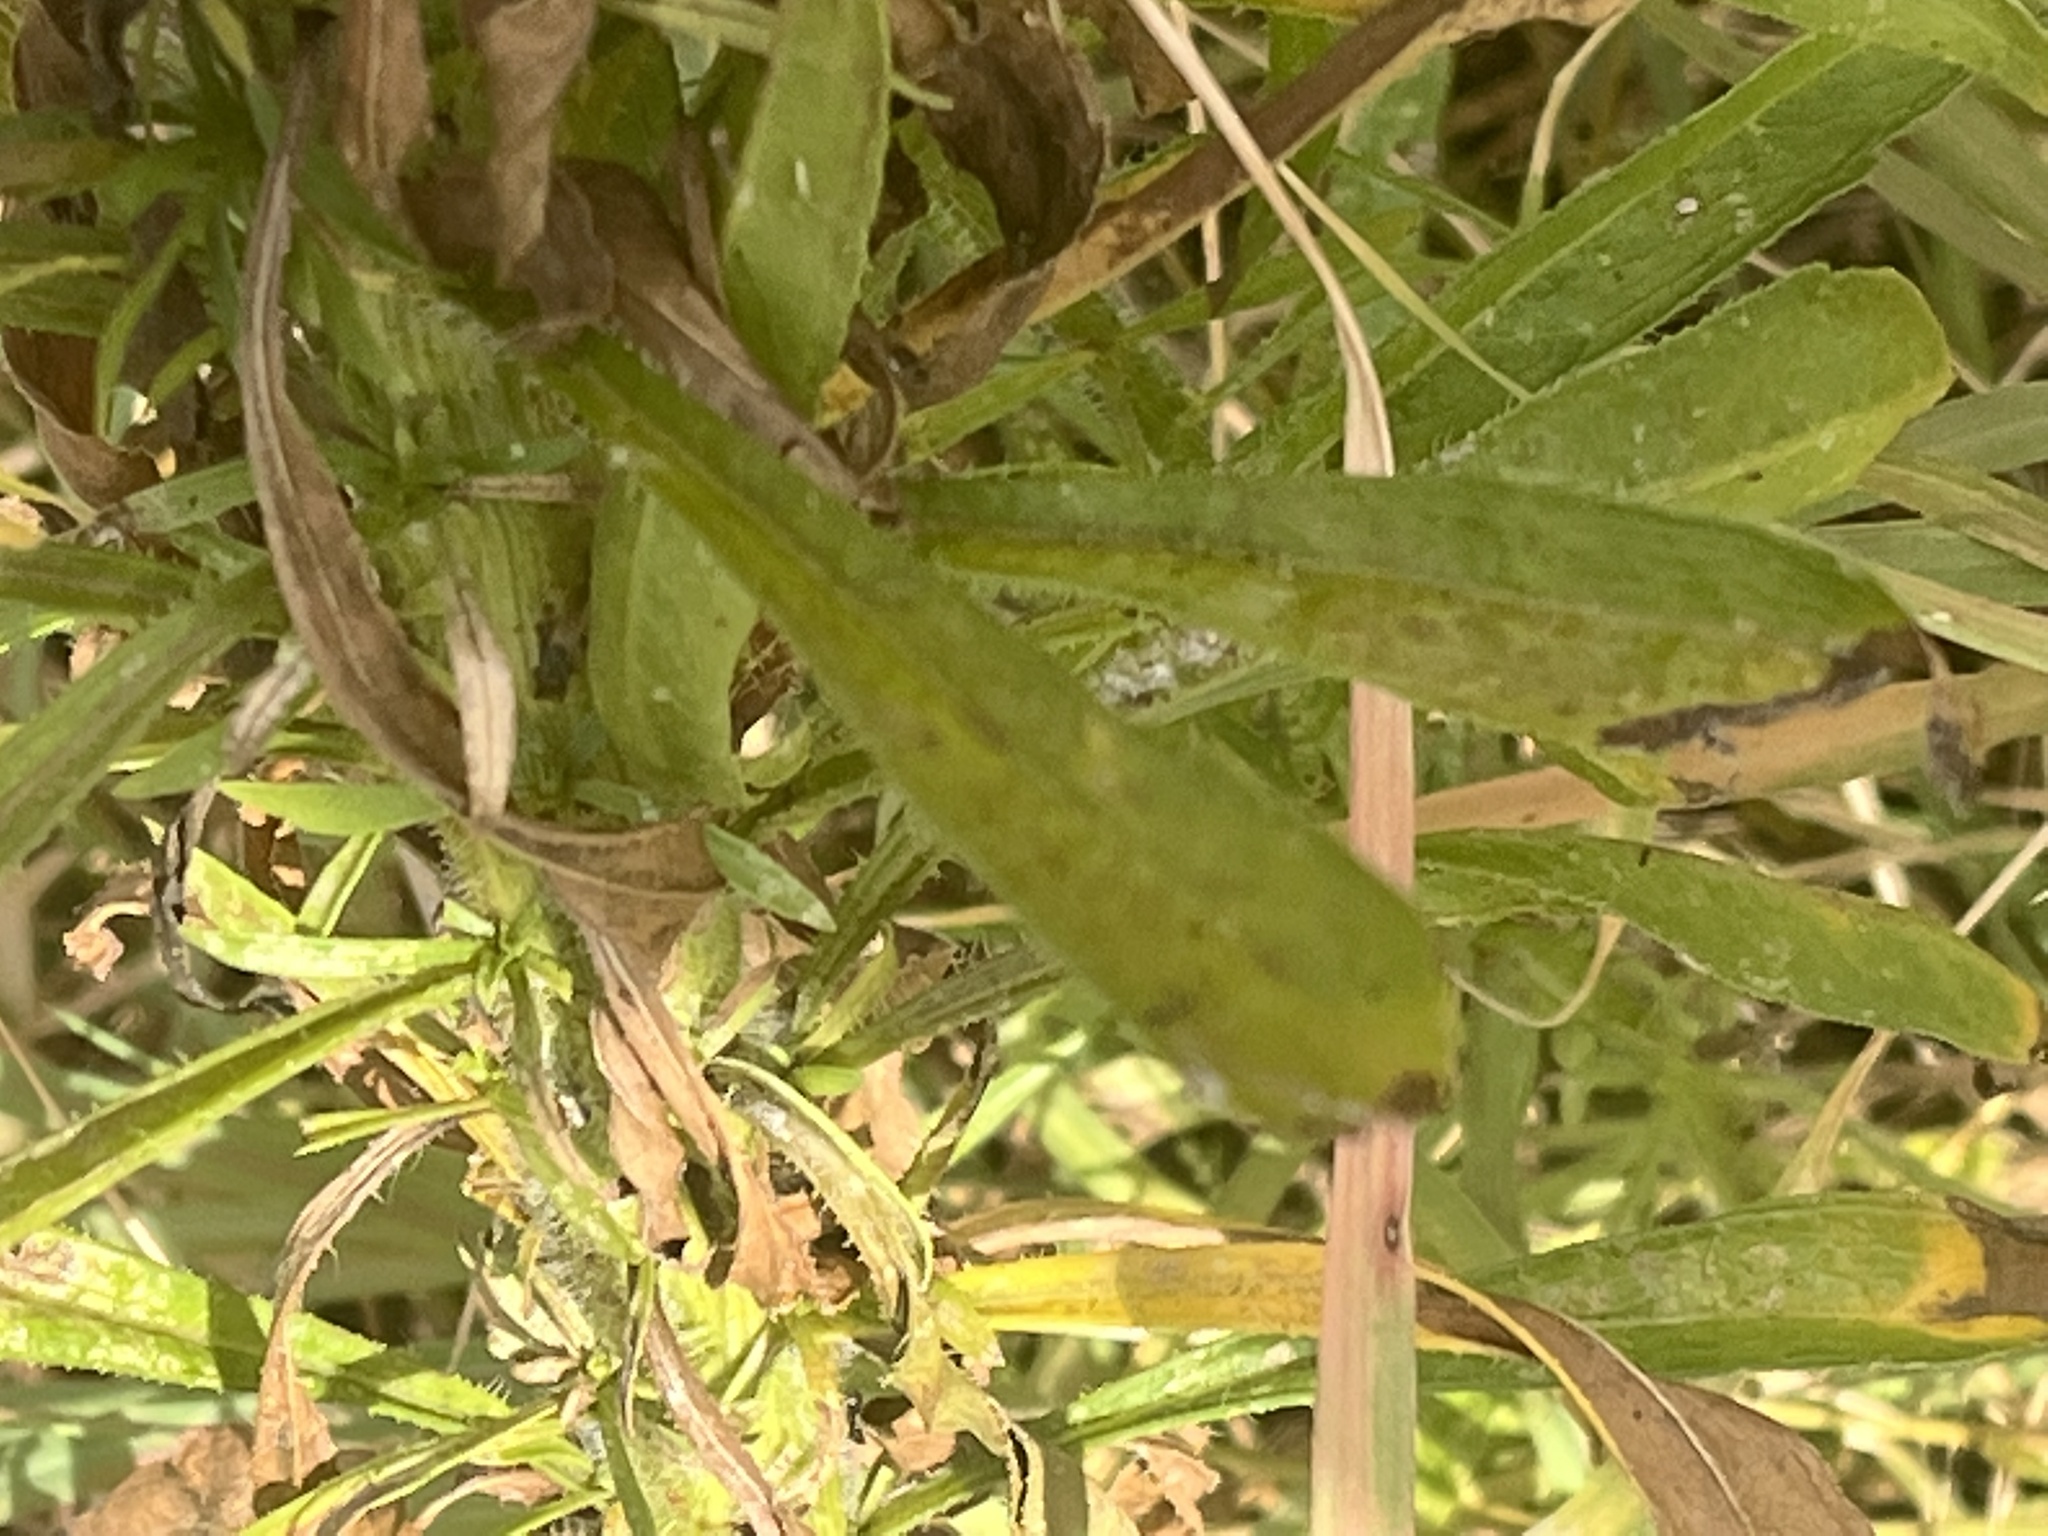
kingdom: Plantae
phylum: Tracheophyta
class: Magnoliopsida
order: Asterales
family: Asteraceae
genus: Erigeron
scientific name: Erigeron canadensis
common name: Canadian fleabane
